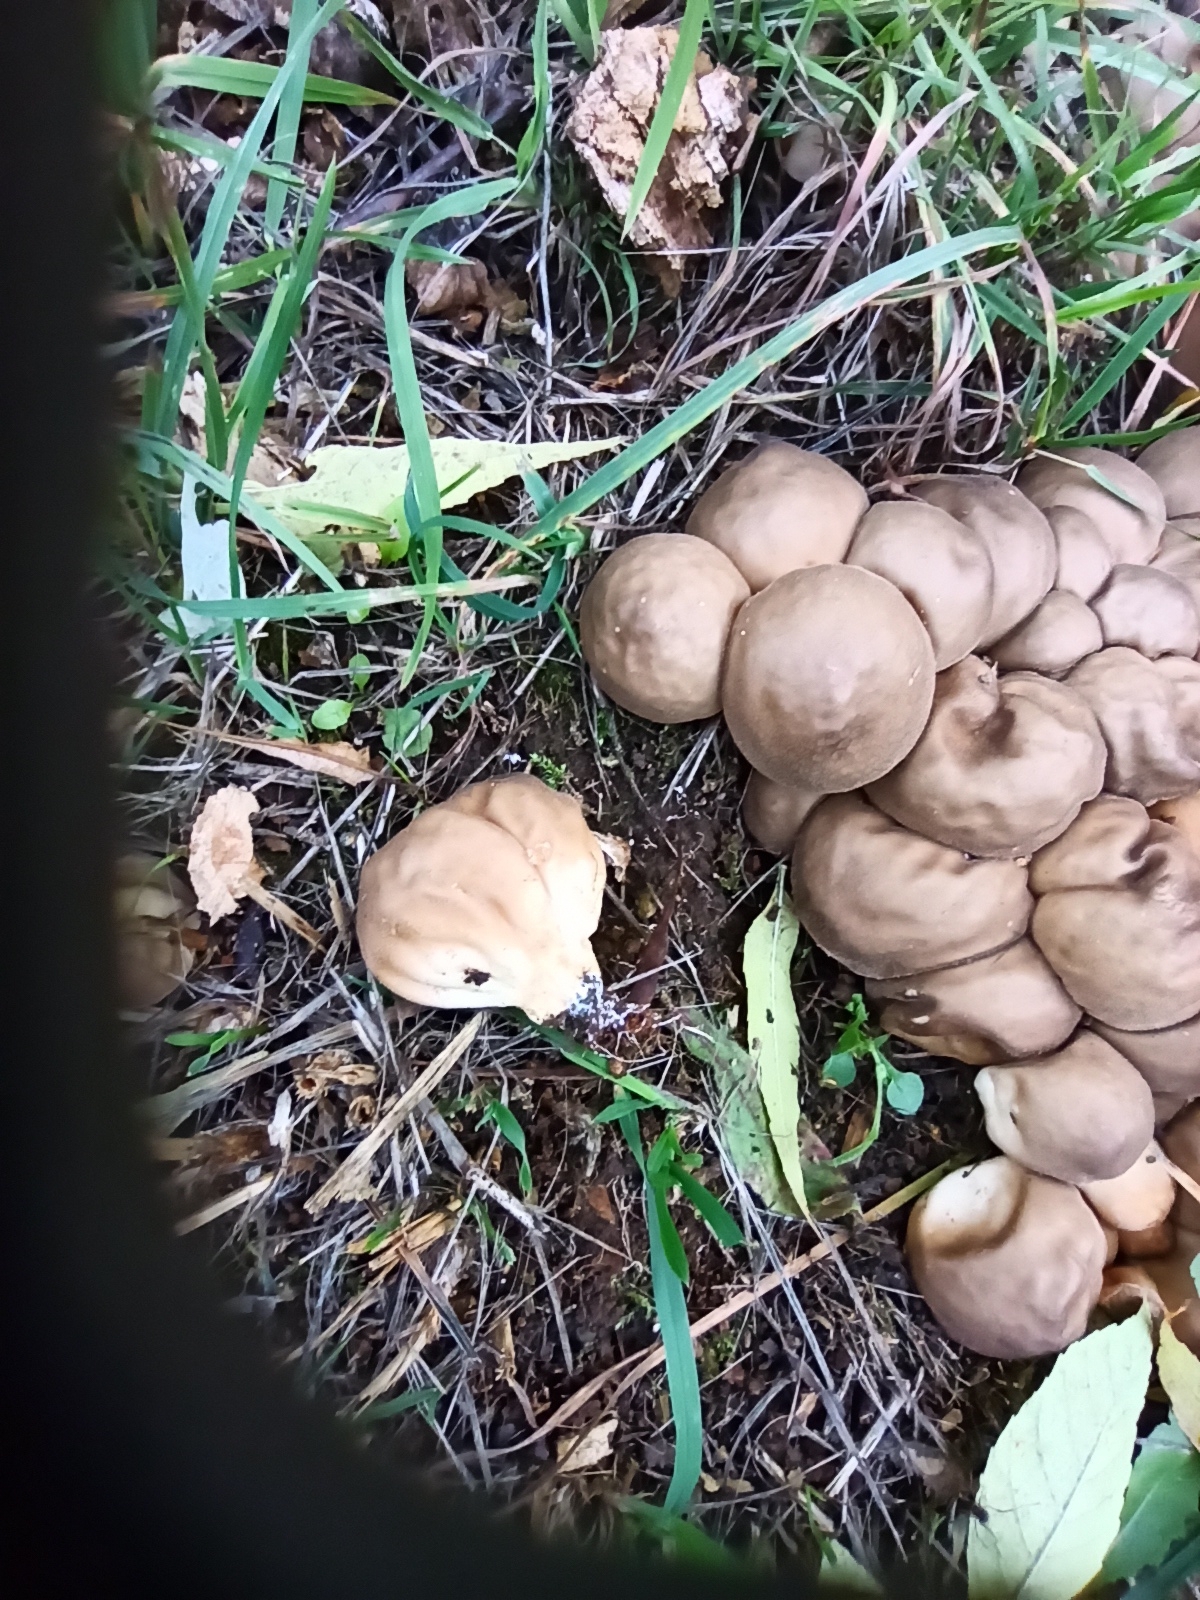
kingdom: Fungi
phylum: Basidiomycota
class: Agaricomycetes
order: Agaricales
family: Lycoperdaceae
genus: Apioperdon
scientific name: Apioperdon pyriforme
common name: Pear-shaped puffball
